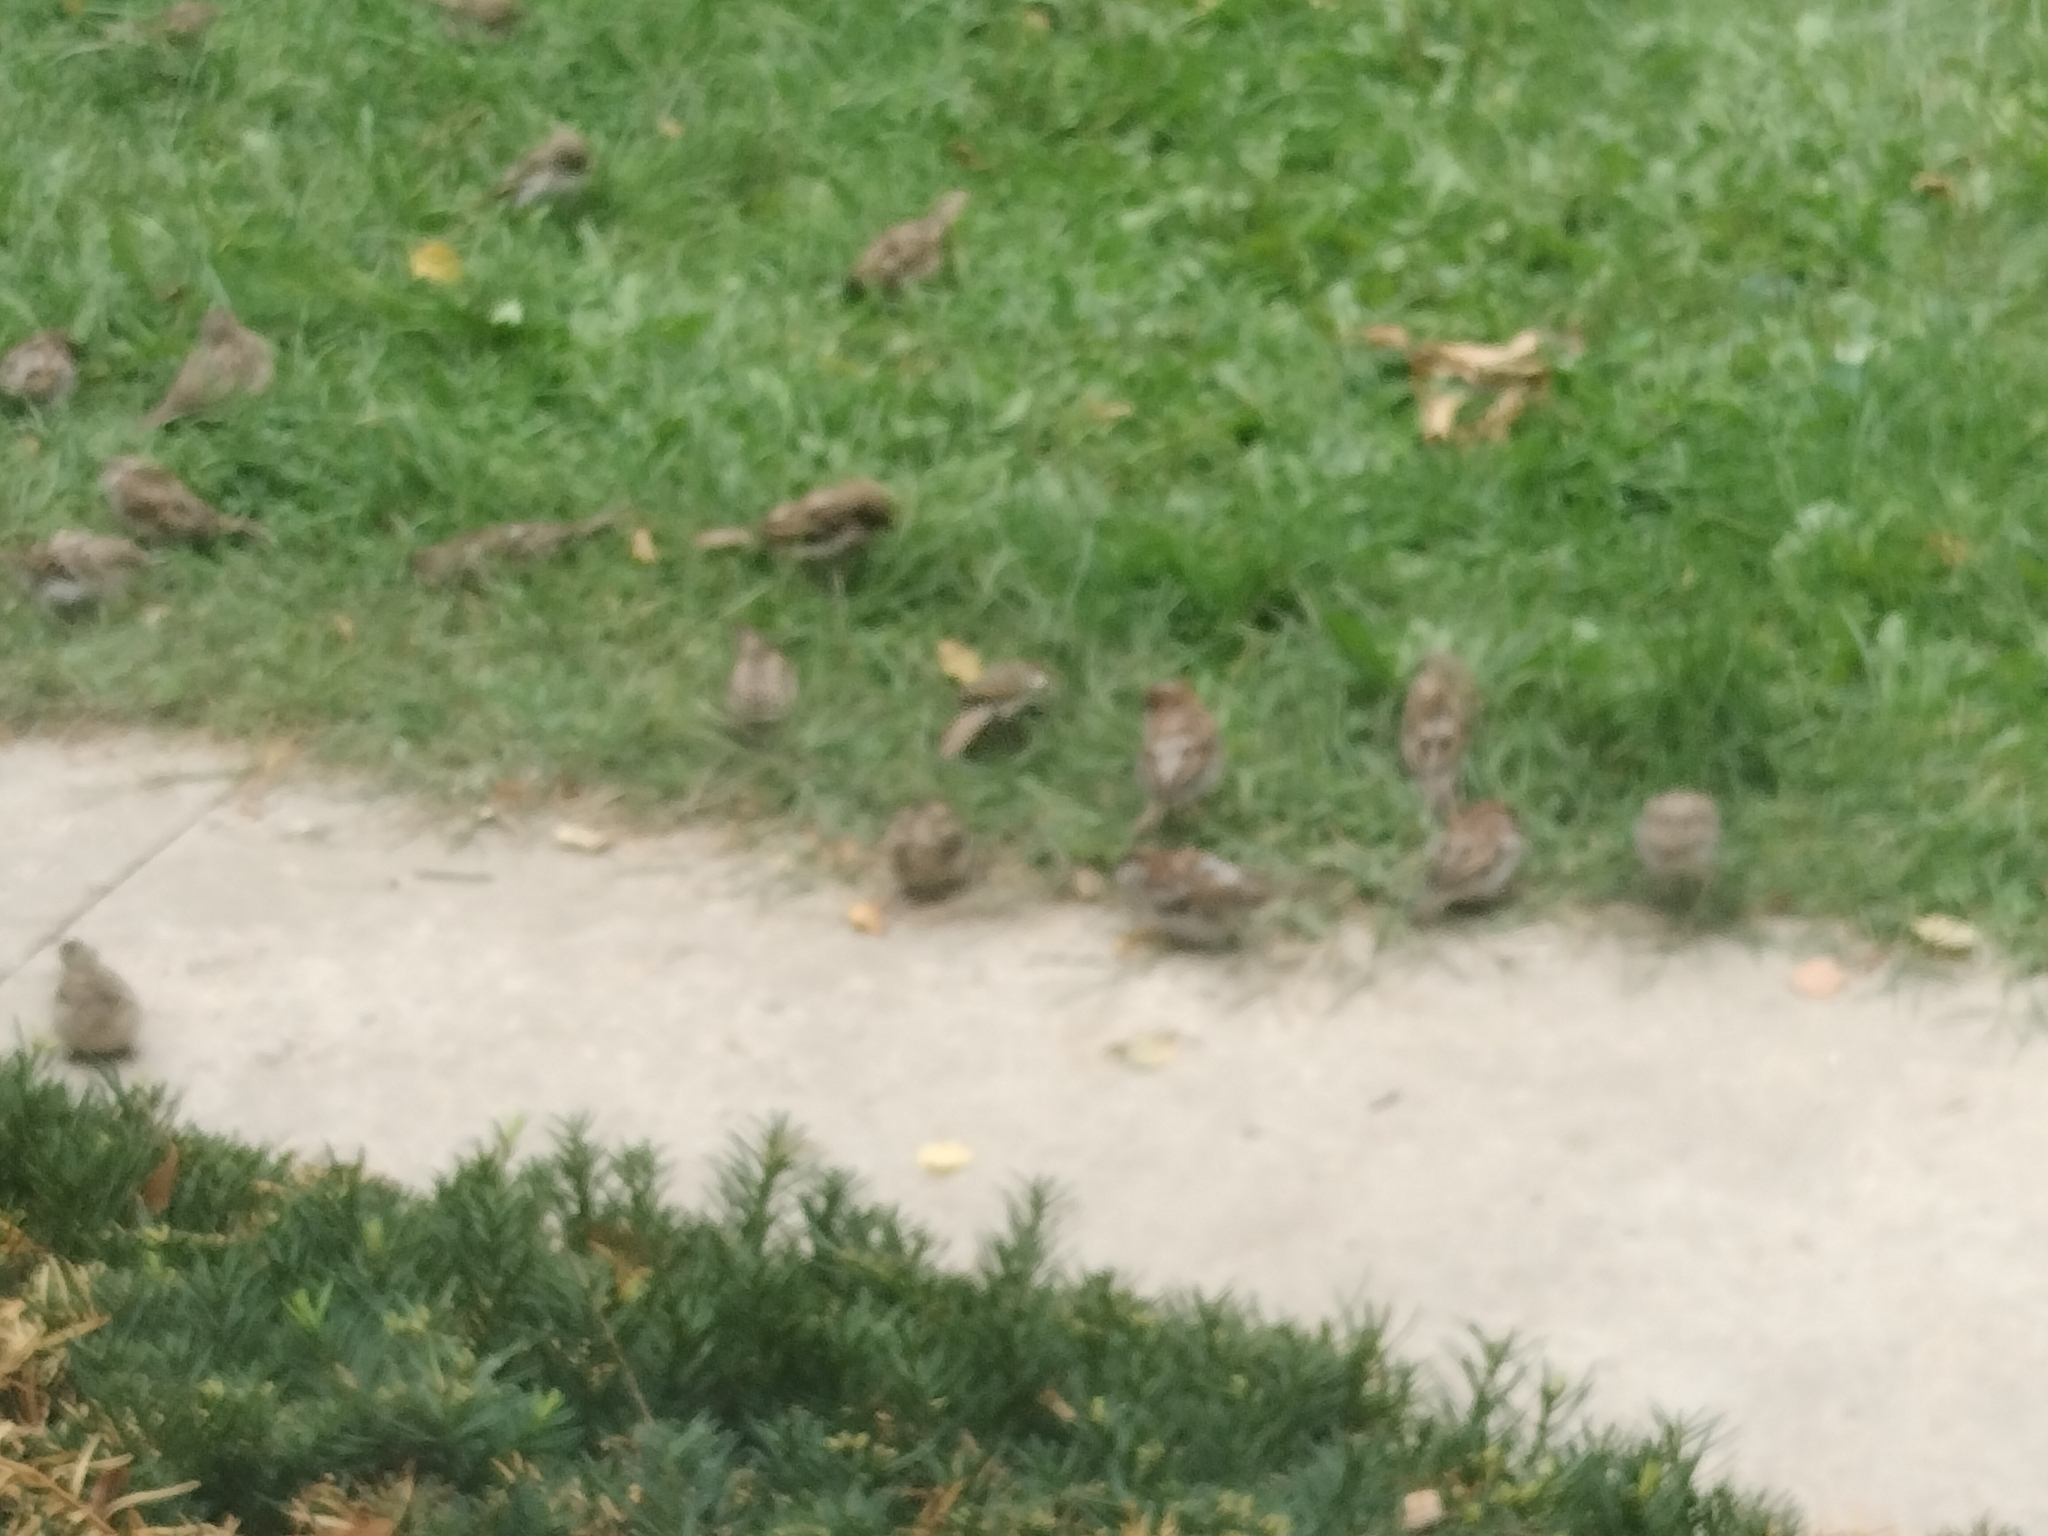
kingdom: Animalia
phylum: Chordata
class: Aves
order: Passeriformes
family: Passeridae
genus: Passer
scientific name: Passer domesticus
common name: House sparrow
